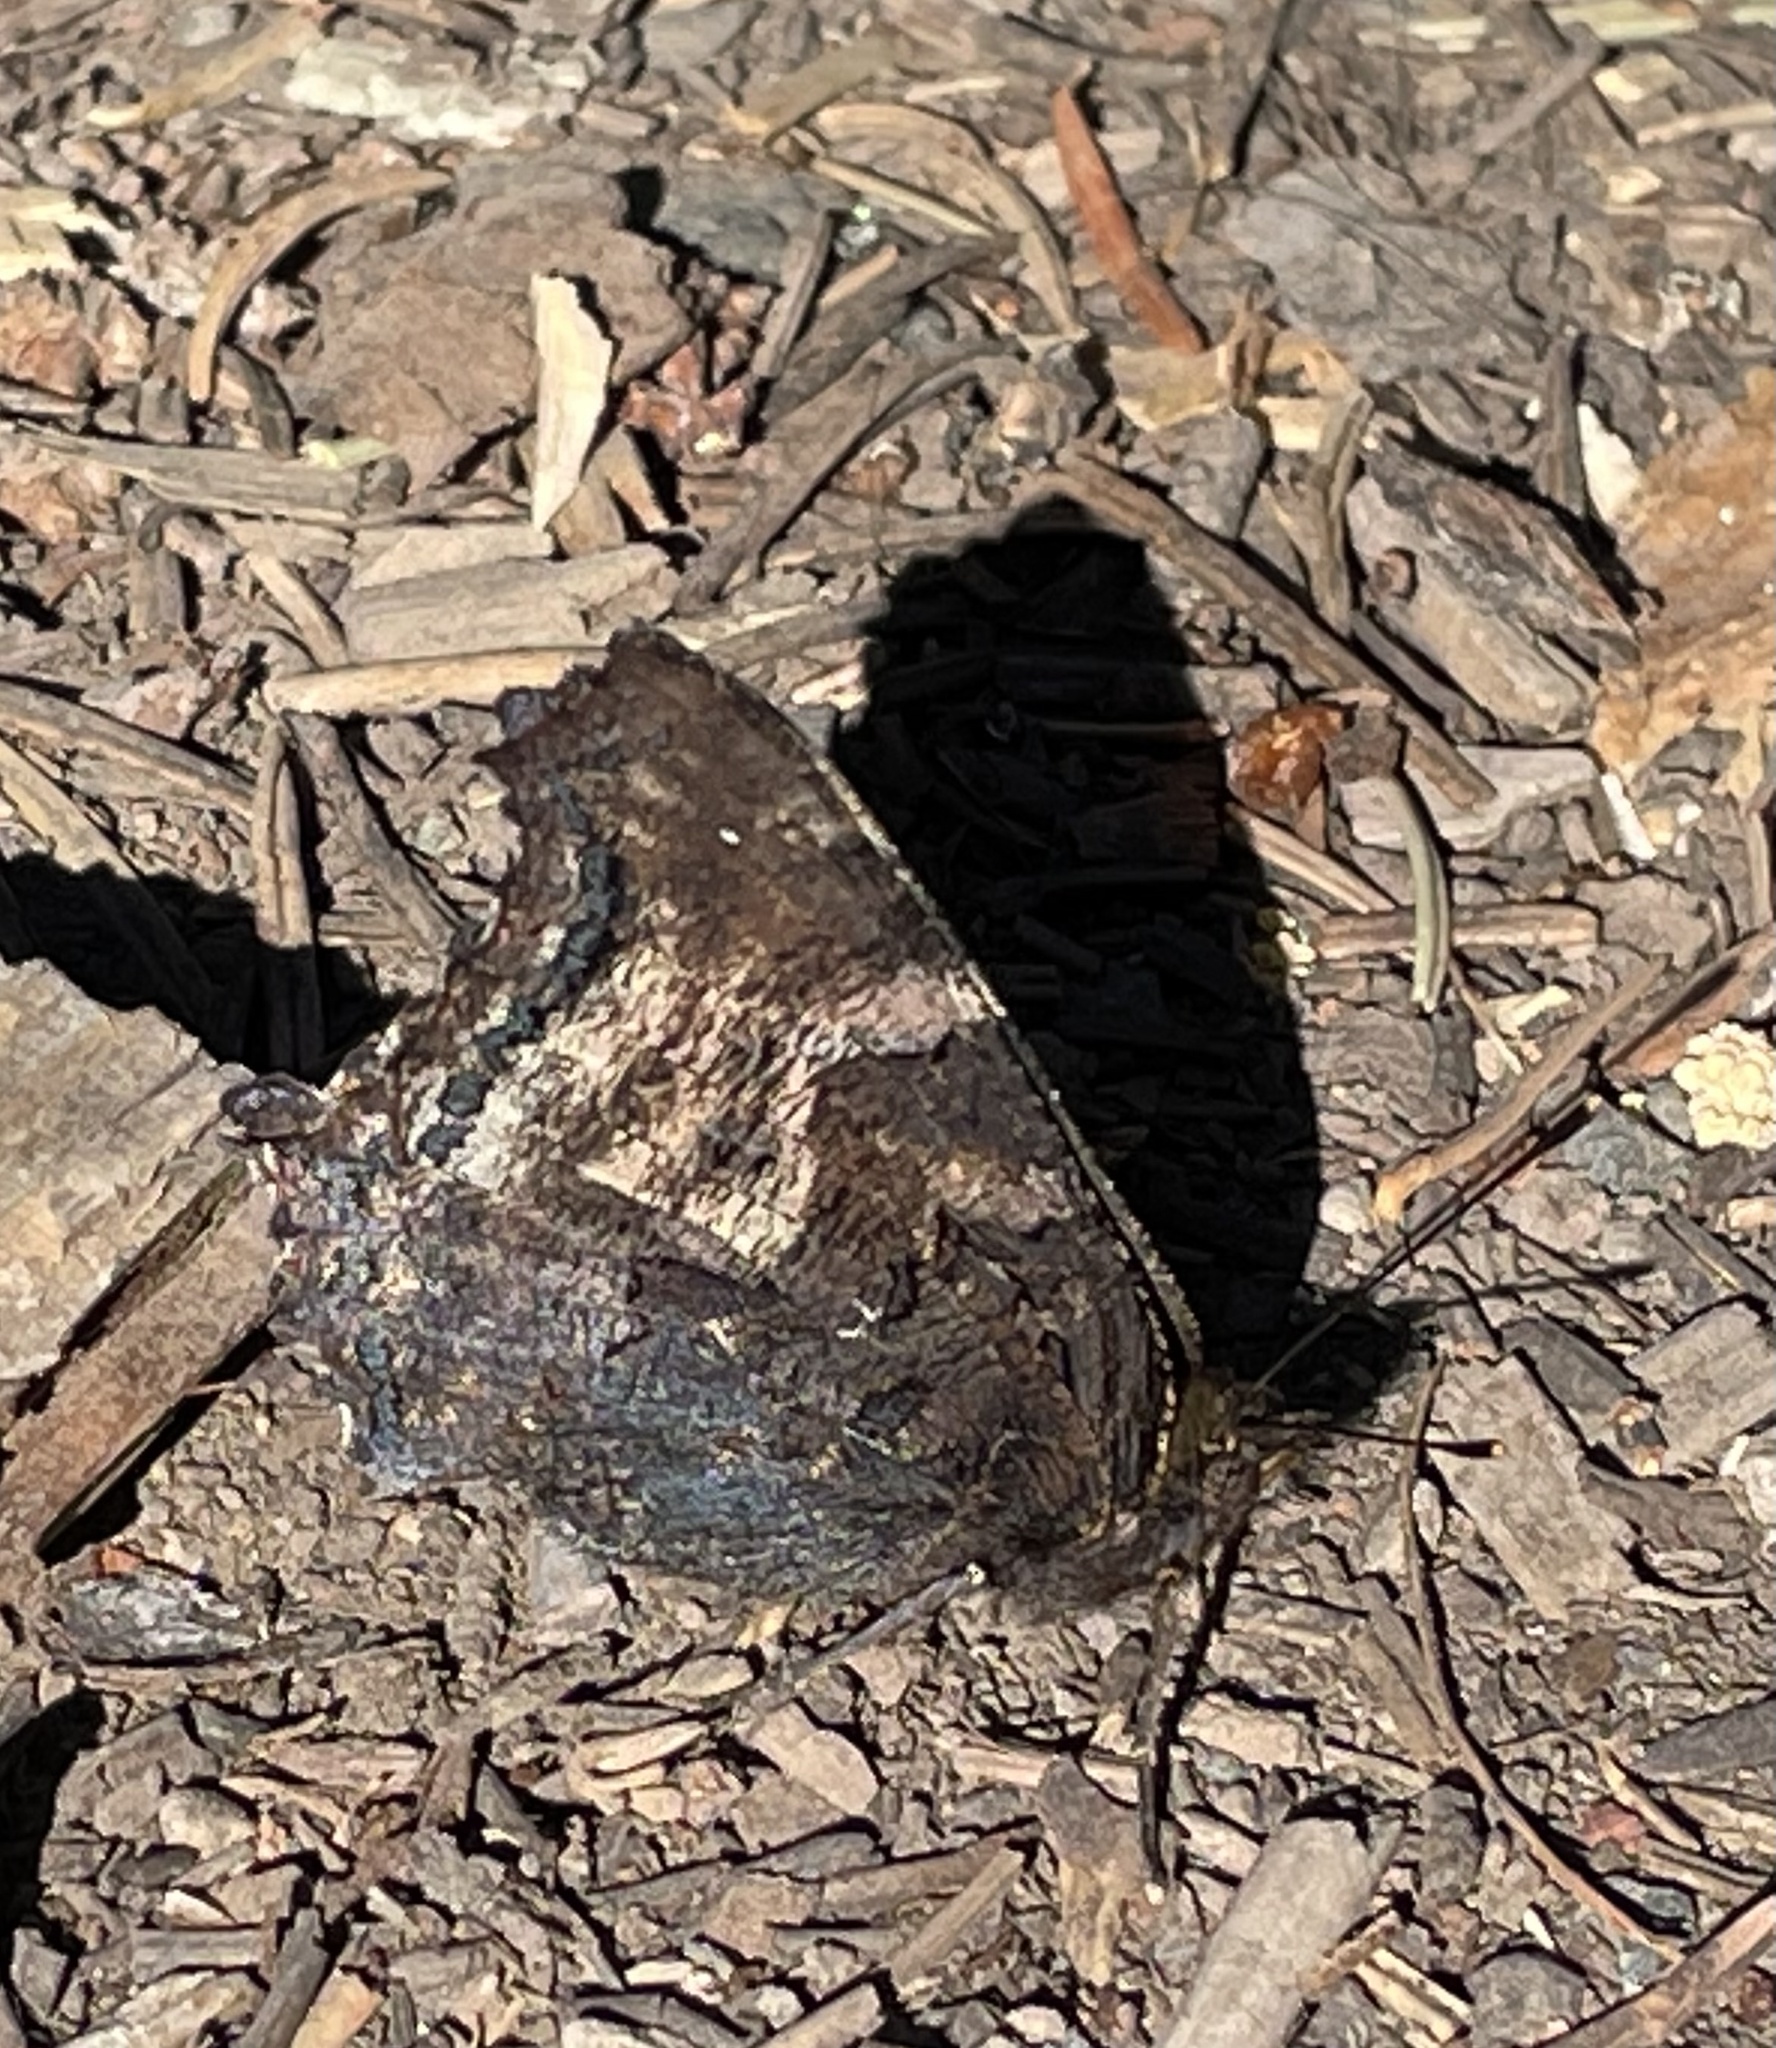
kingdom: Animalia
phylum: Arthropoda
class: Insecta
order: Lepidoptera
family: Nymphalidae
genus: Nymphalis
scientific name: Nymphalis californica
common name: California tortoiseshell
